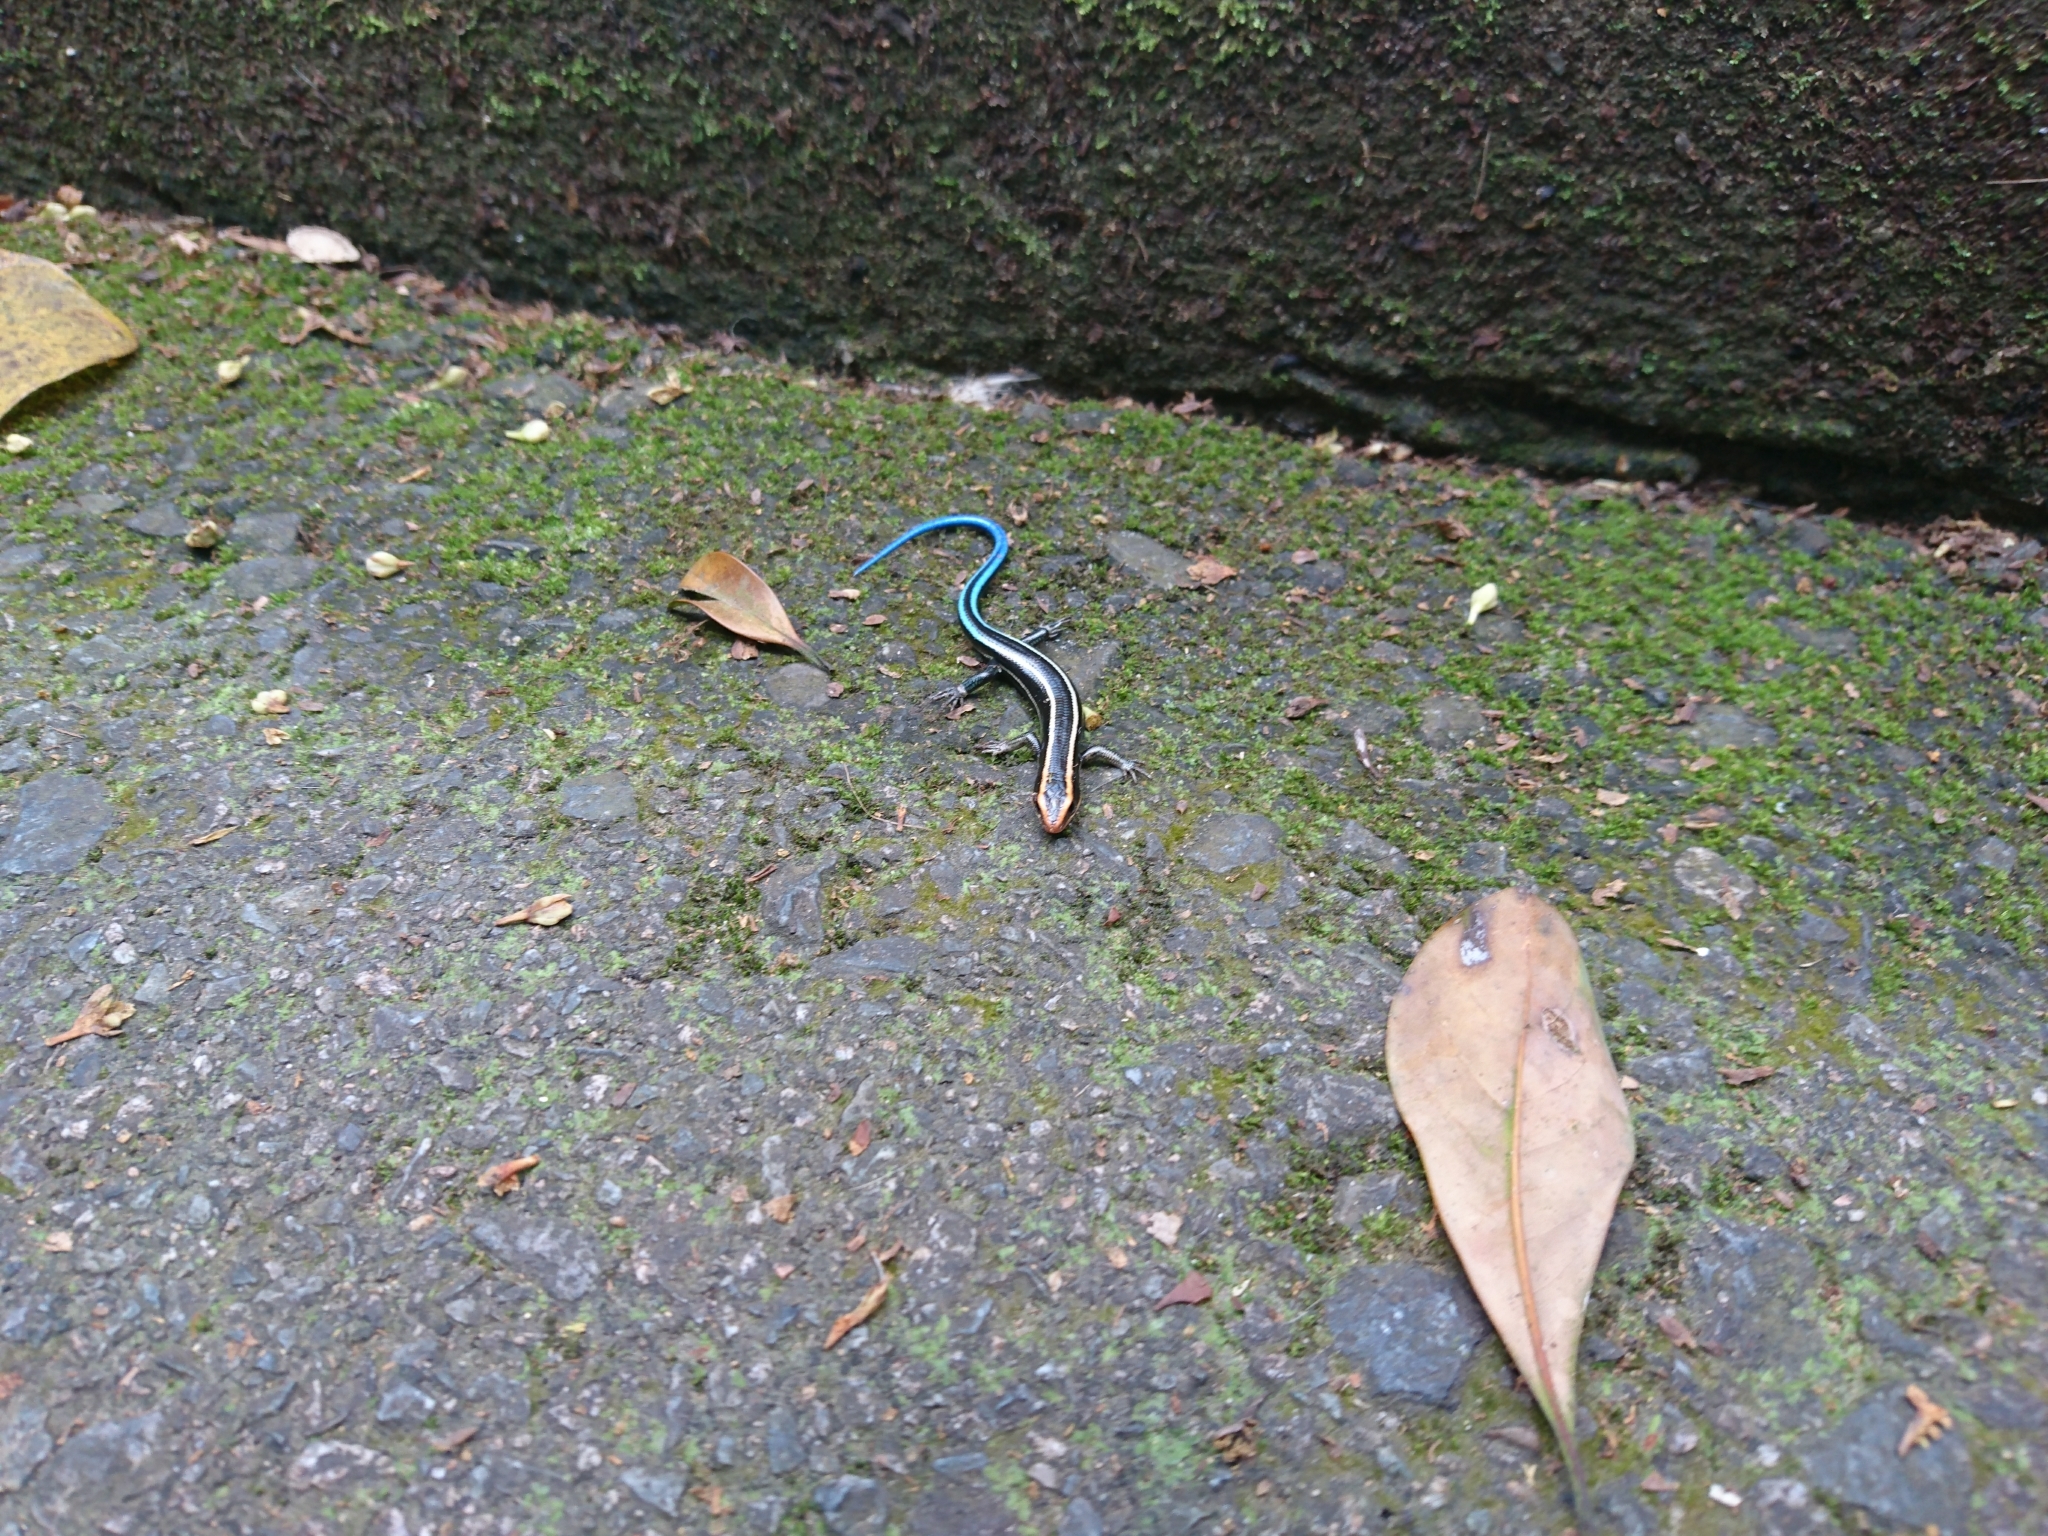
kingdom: Animalia
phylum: Chordata
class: Squamata
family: Scincidae
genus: Plestiodon
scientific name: Plestiodon quadrilineatus
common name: Four-striped skink
